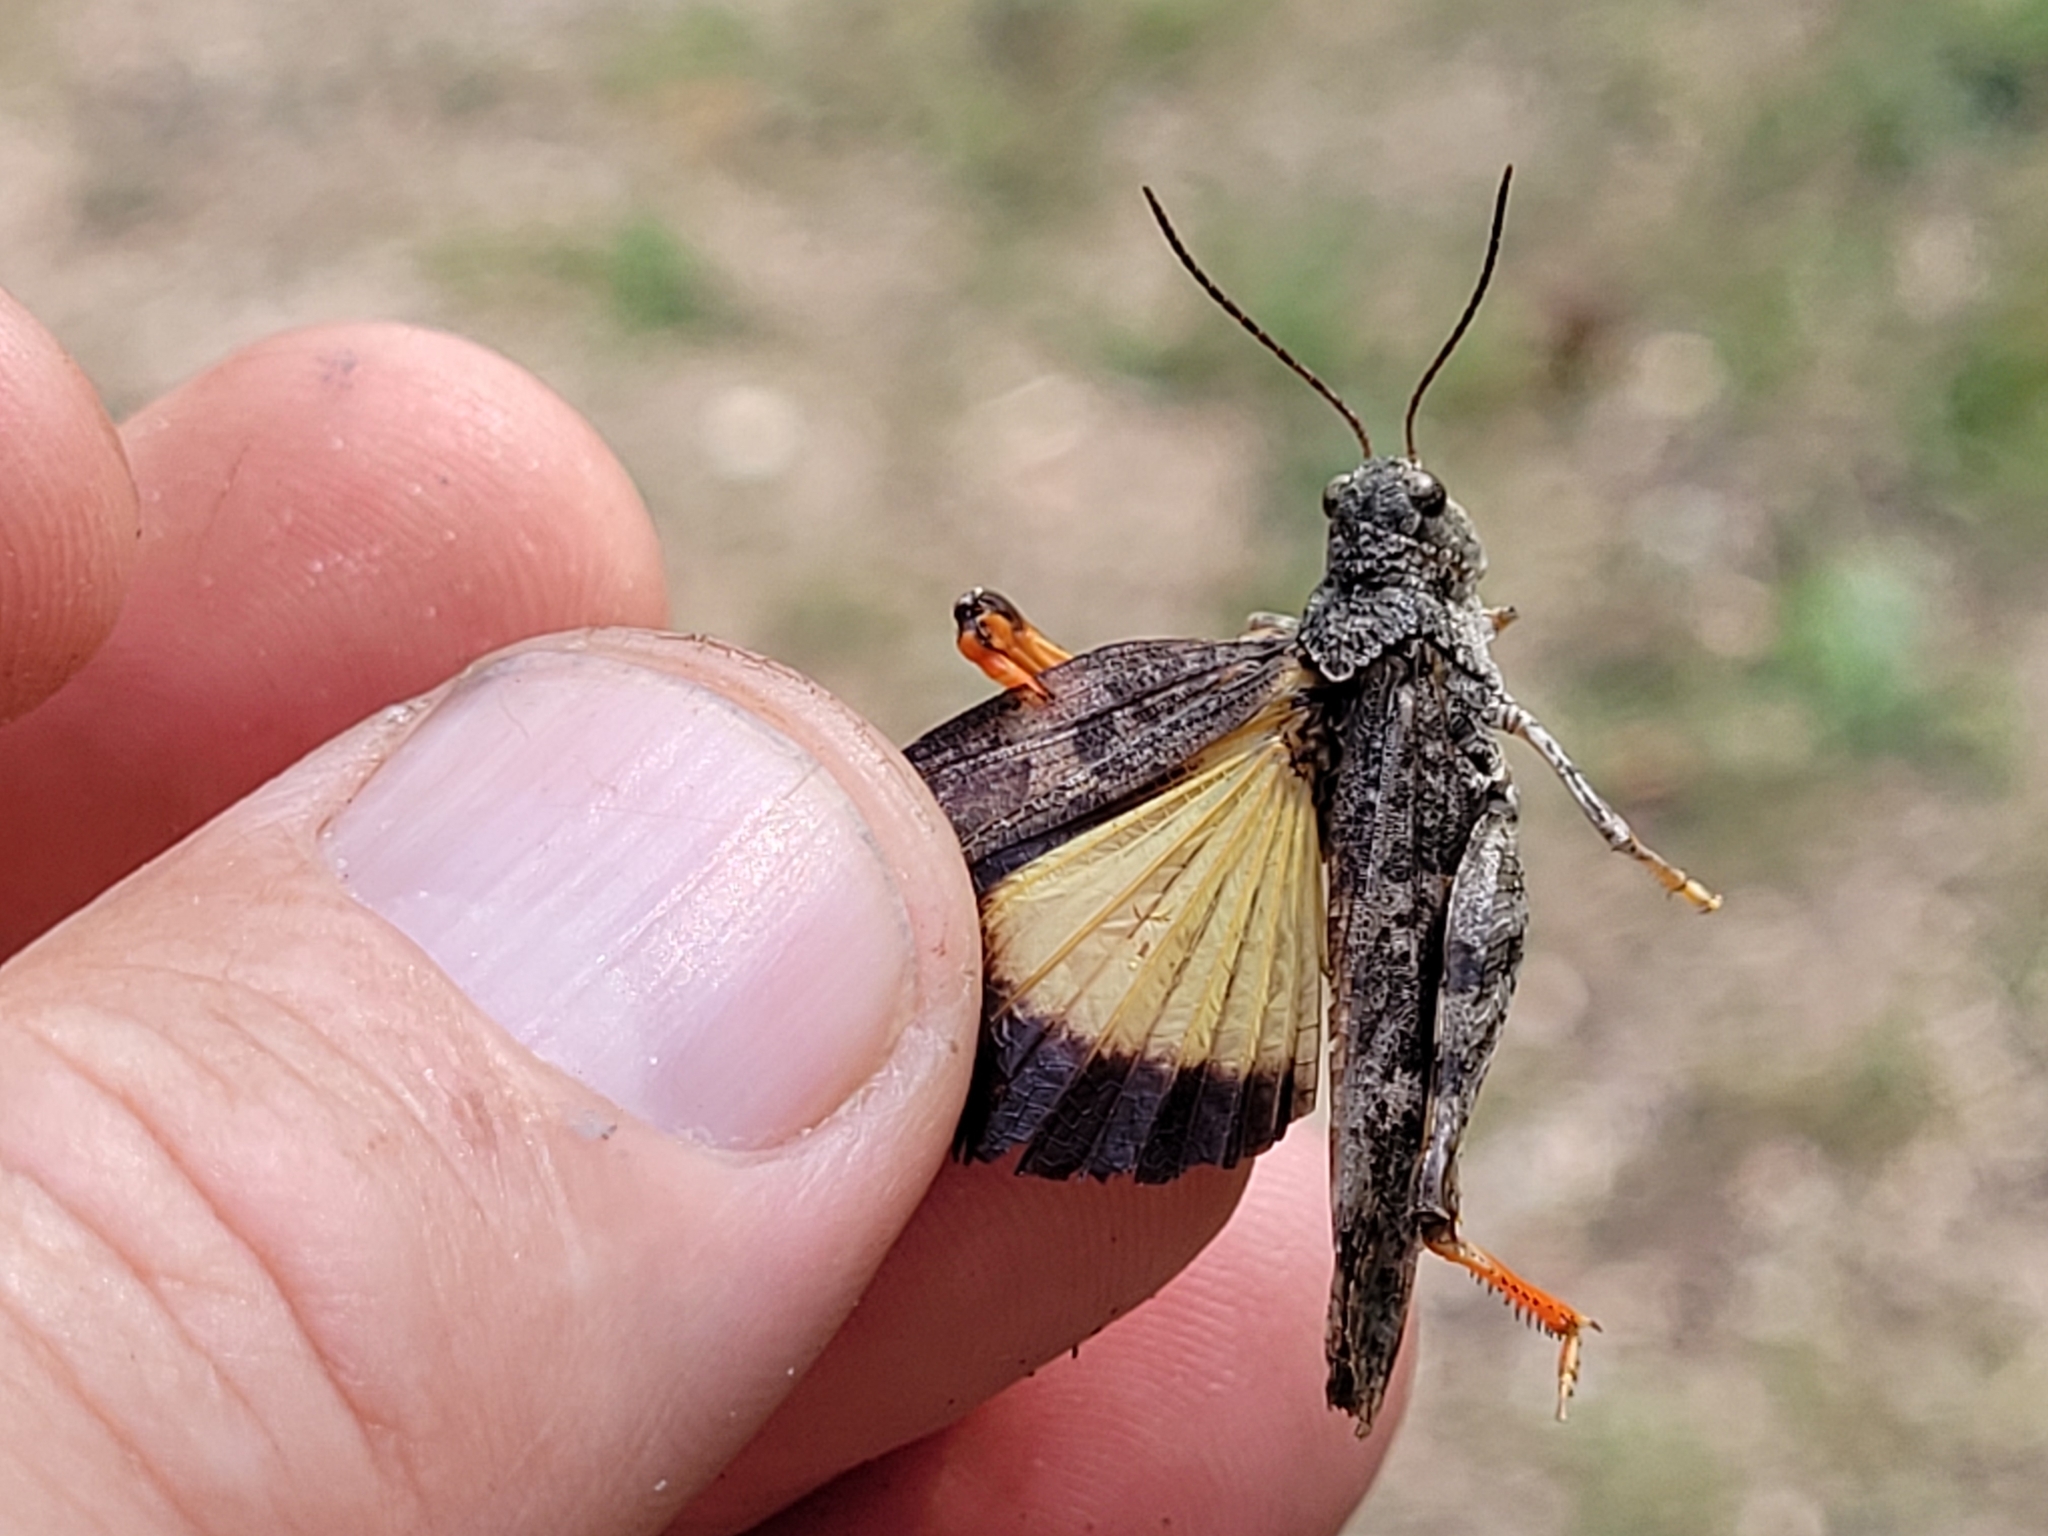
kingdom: Animalia
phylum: Arthropoda
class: Insecta
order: Orthoptera
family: Acrididae
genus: Cratypedes
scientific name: Cratypedes neglectus
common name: Pronotal range grasshopper
